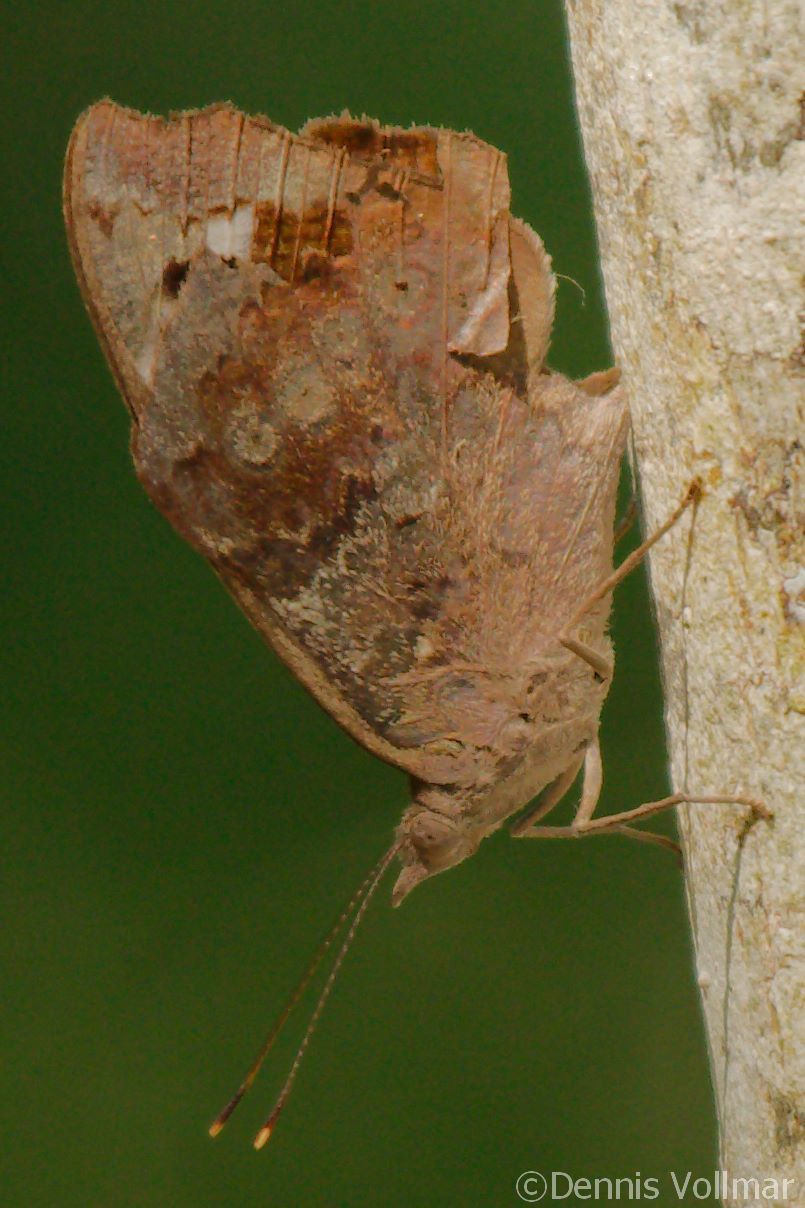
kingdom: Animalia
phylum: Arthropoda
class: Insecta
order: Lepidoptera
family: Nymphalidae
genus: Eunica
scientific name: Eunica tatila
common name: Florida purplewing
